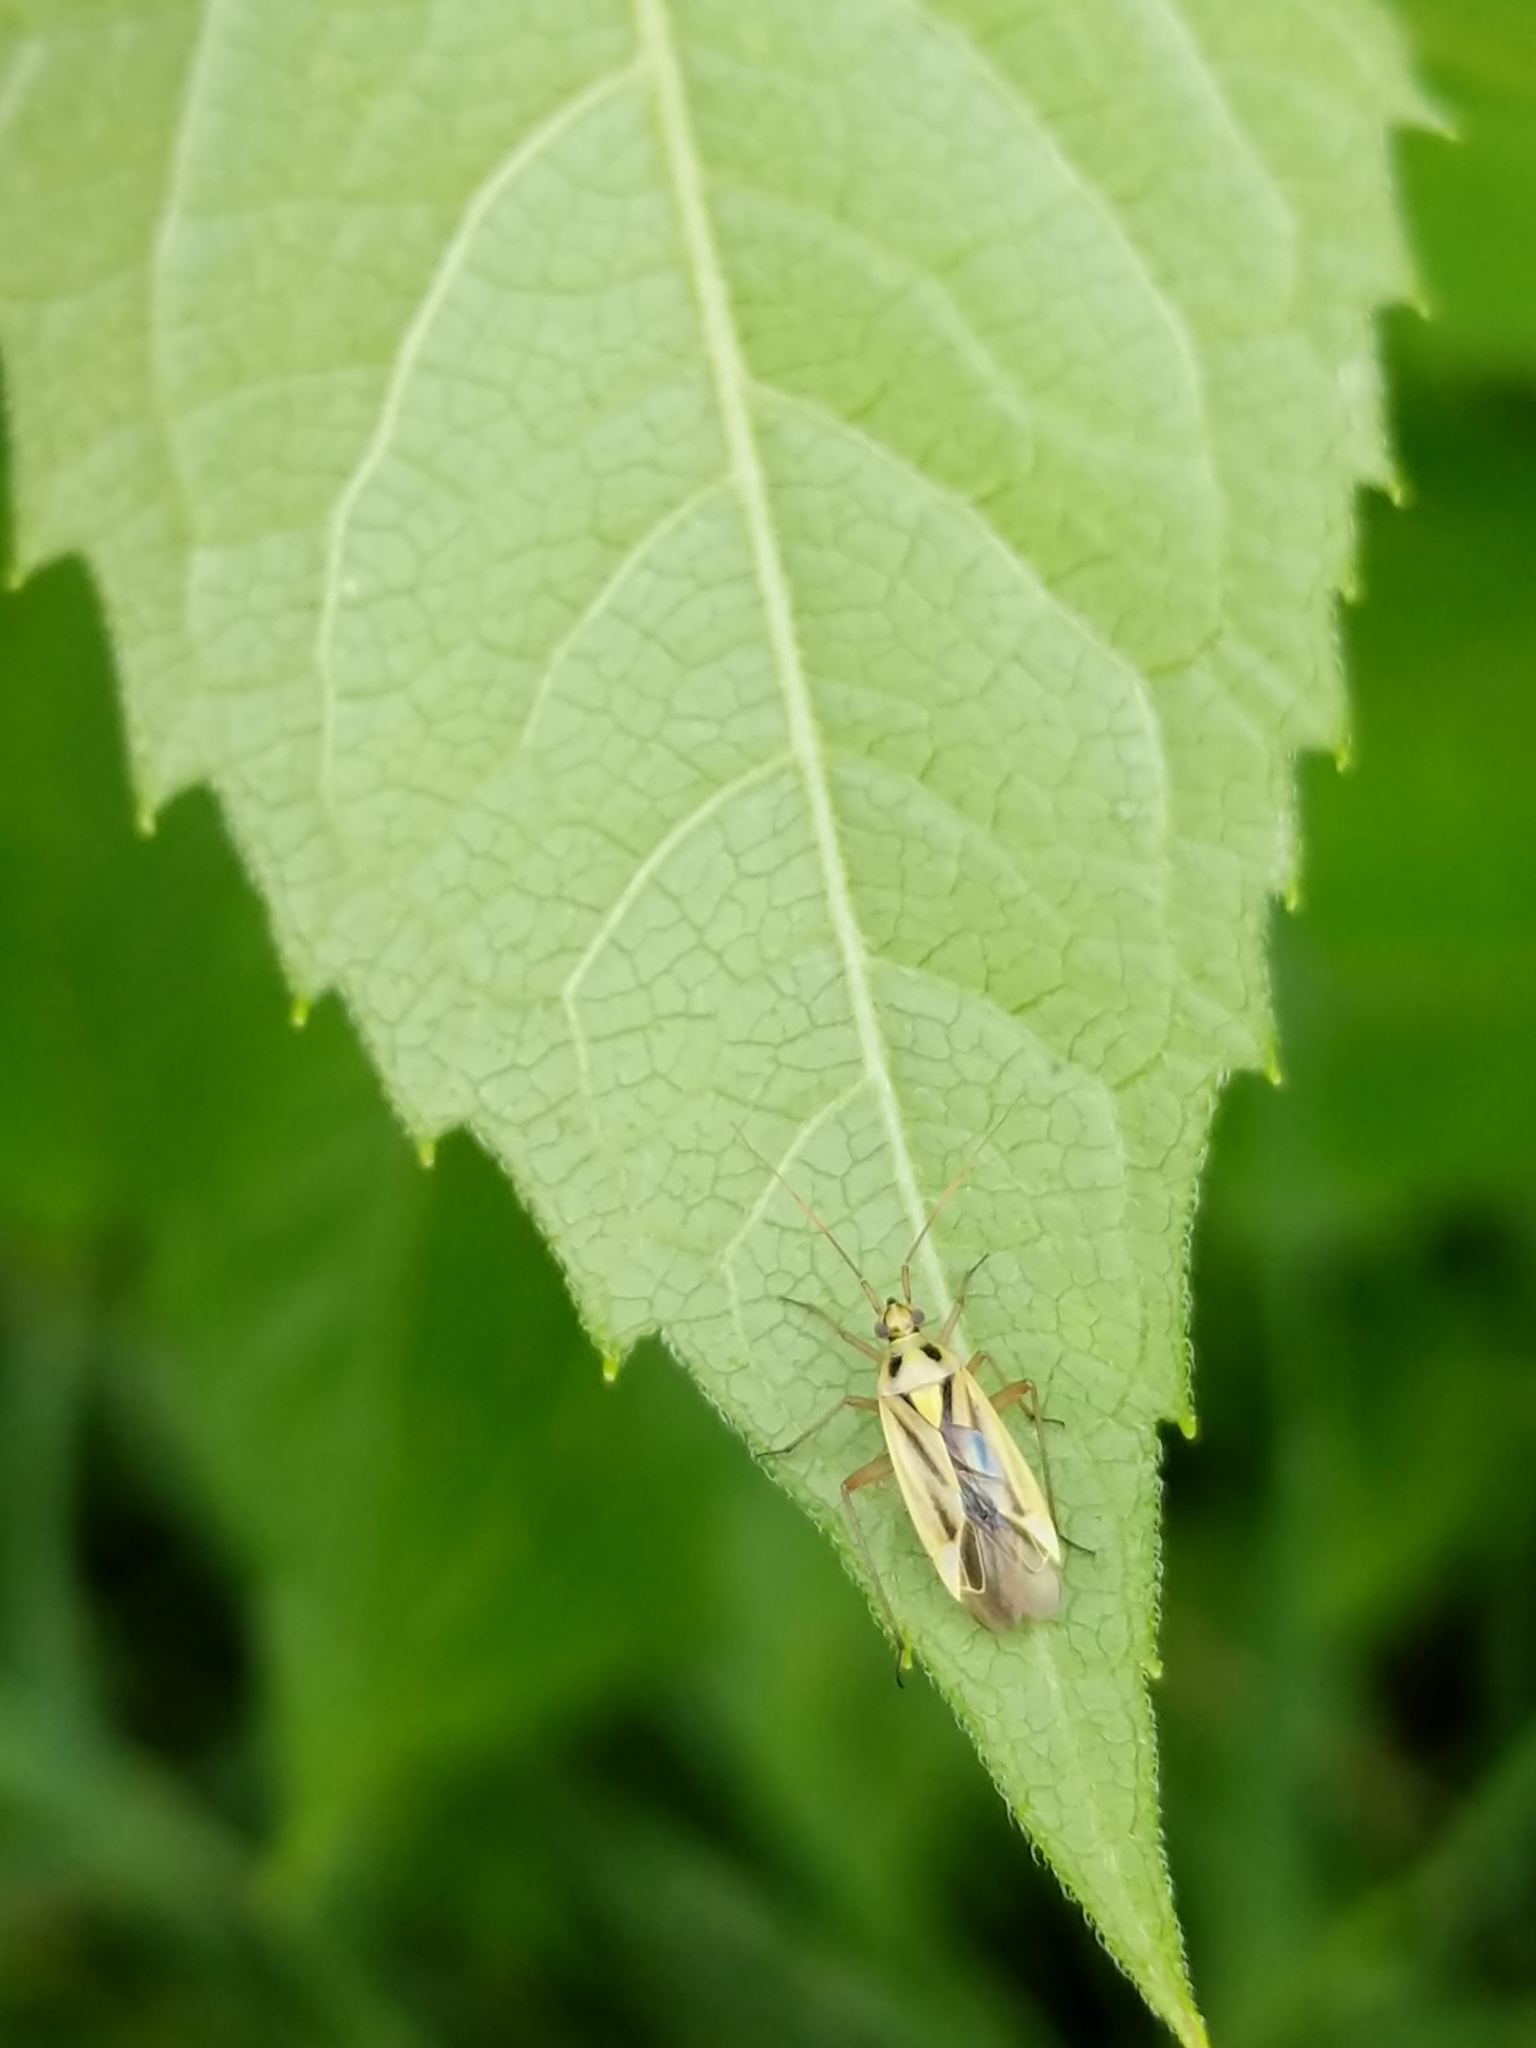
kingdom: Animalia
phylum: Arthropoda
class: Insecta
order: Hemiptera
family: Miridae
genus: Stenotus
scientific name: Stenotus binotatus
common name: Plant bug
